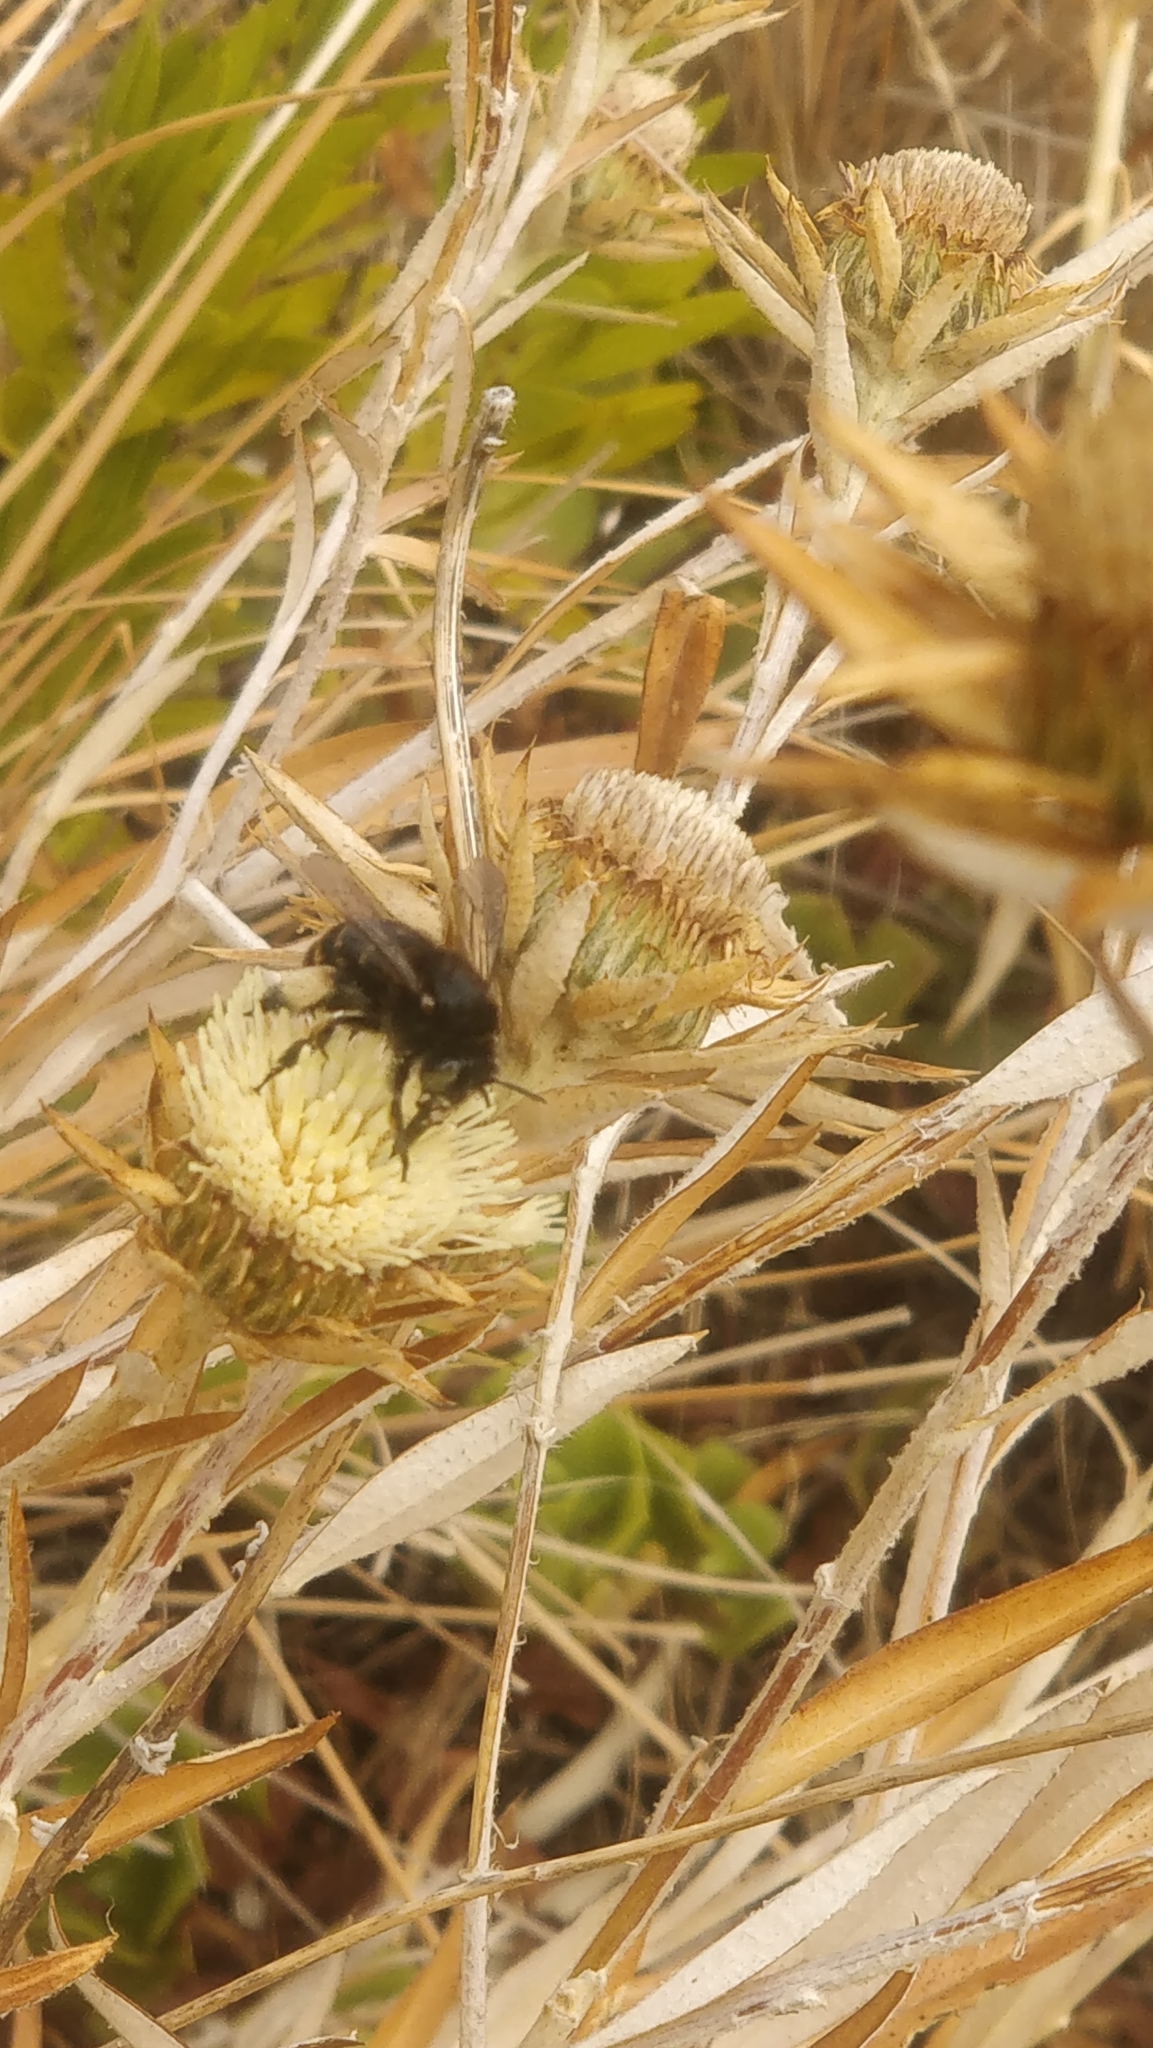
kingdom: Animalia
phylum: Arthropoda
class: Insecta
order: Hymenoptera
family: Apidae
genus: Amegilla
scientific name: Amegilla quadrifasciata
